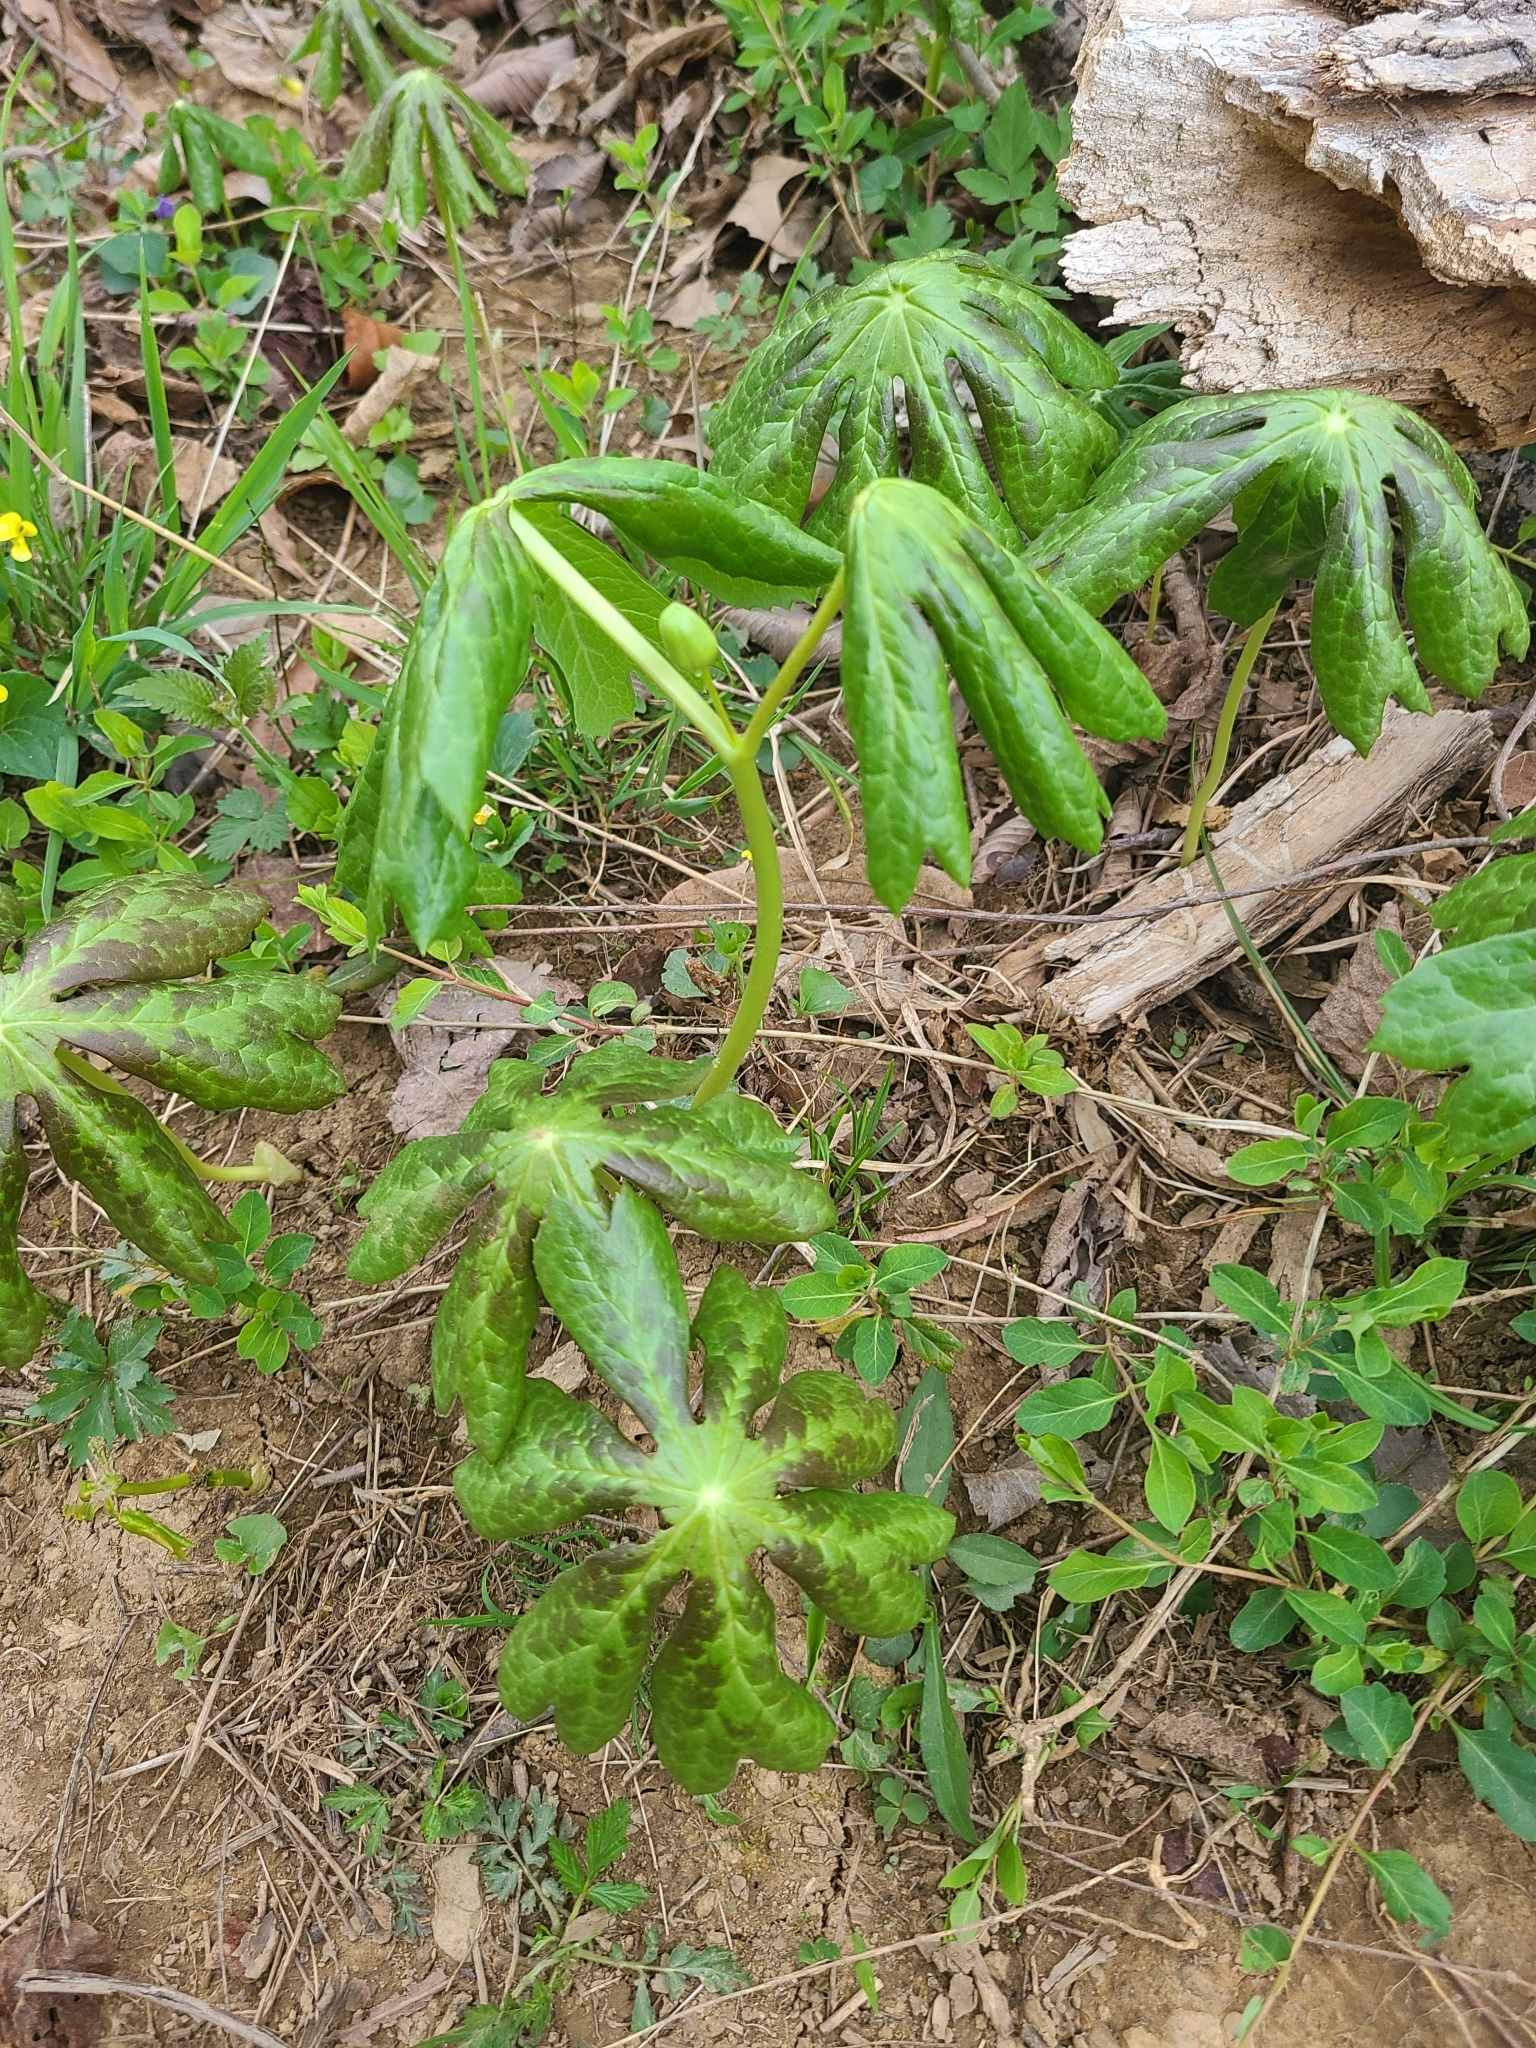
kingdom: Plantae
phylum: Tracheophyta
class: Magnoliopsida
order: Ranunculales
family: Berberidaceae
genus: Podophyllum
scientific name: Podophyllum peltatum
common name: Wild mandrake
